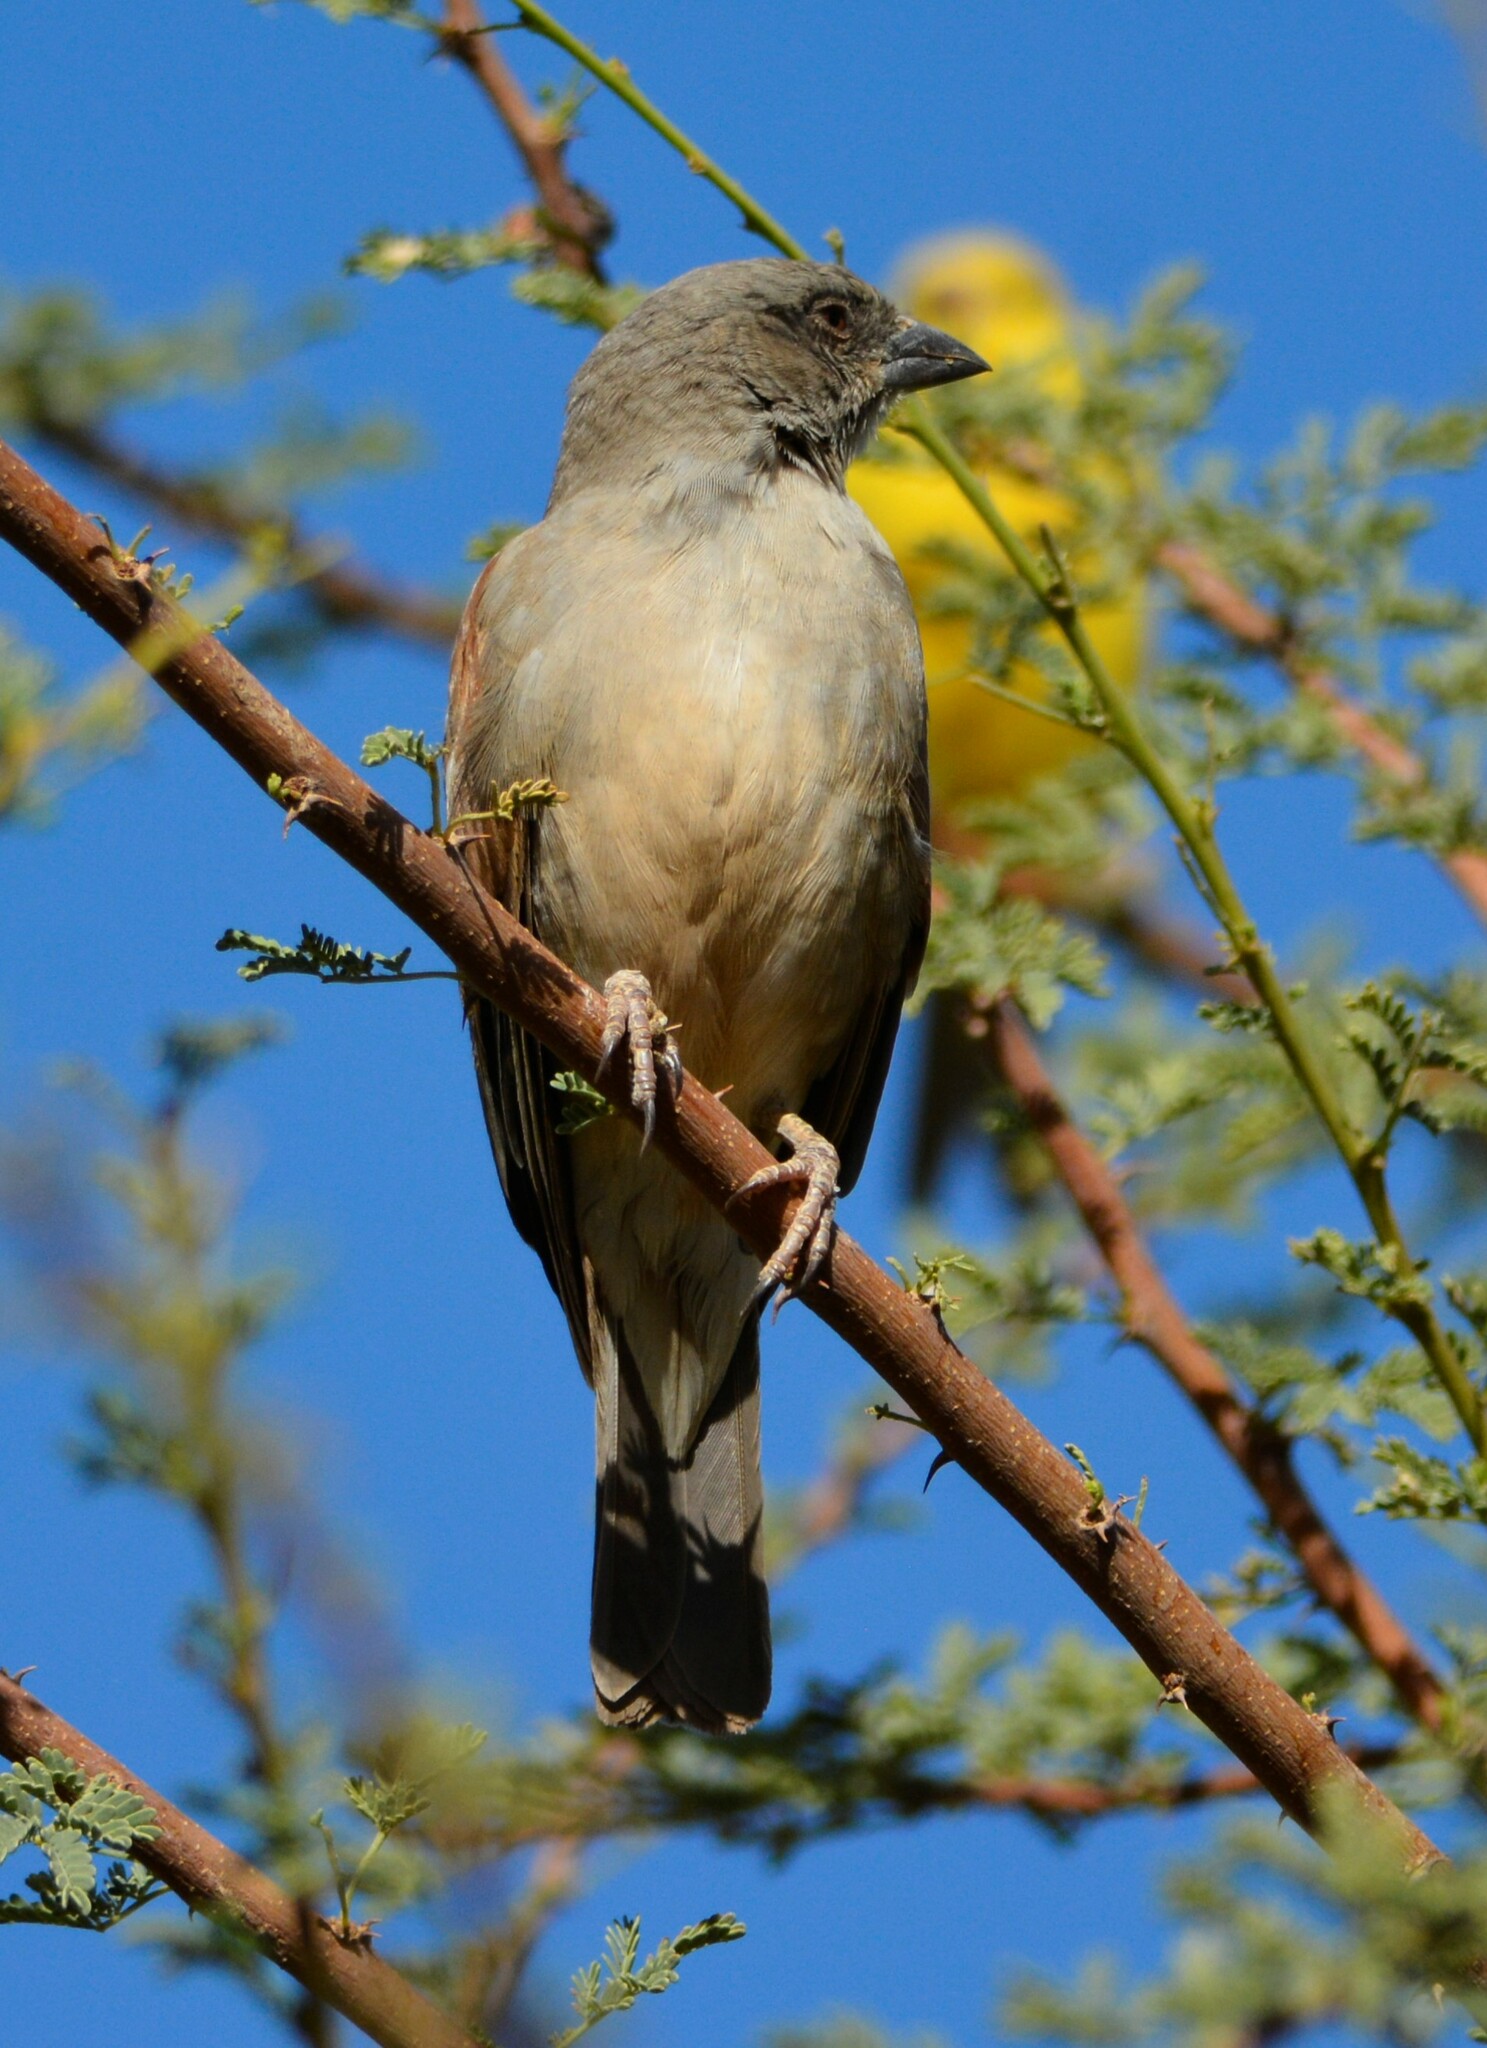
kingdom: Animalia
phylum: Chordata
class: Aves
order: Passeriformes
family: Passeridae
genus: Passer
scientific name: Passer griseus
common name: Northern grey-headed sparrow
